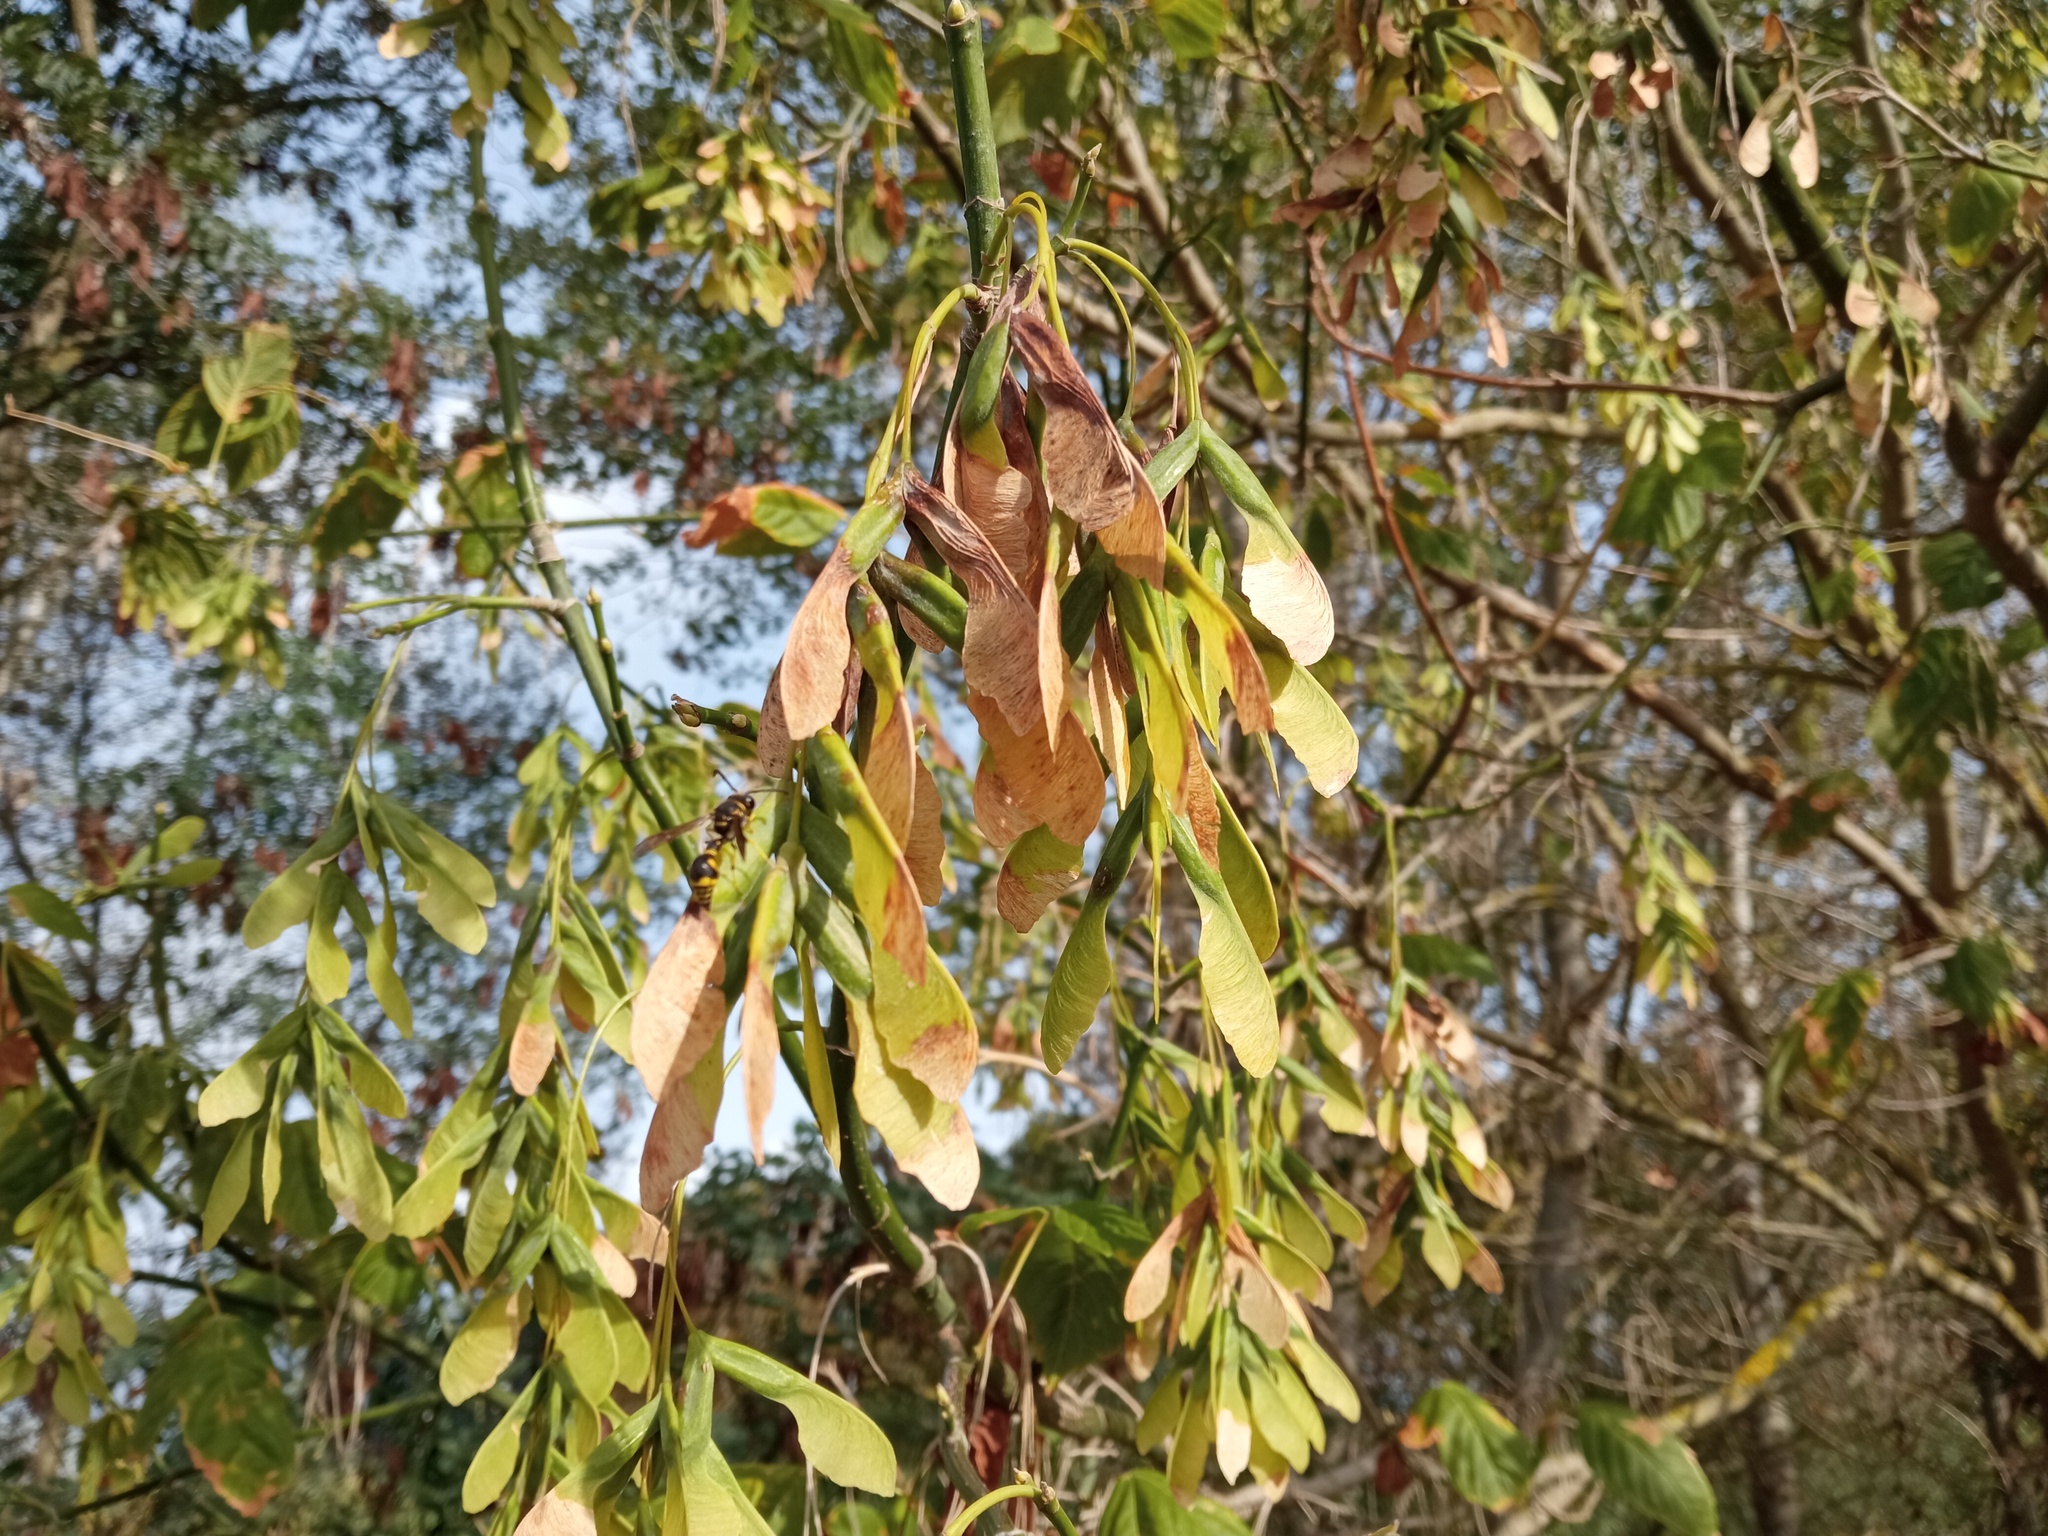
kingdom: Plantae
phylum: Tracheophyta
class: Magnoliopsida
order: Sapindales
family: Sapindaceae
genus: Acer
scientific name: Acer negundo
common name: Ashleaf maple
